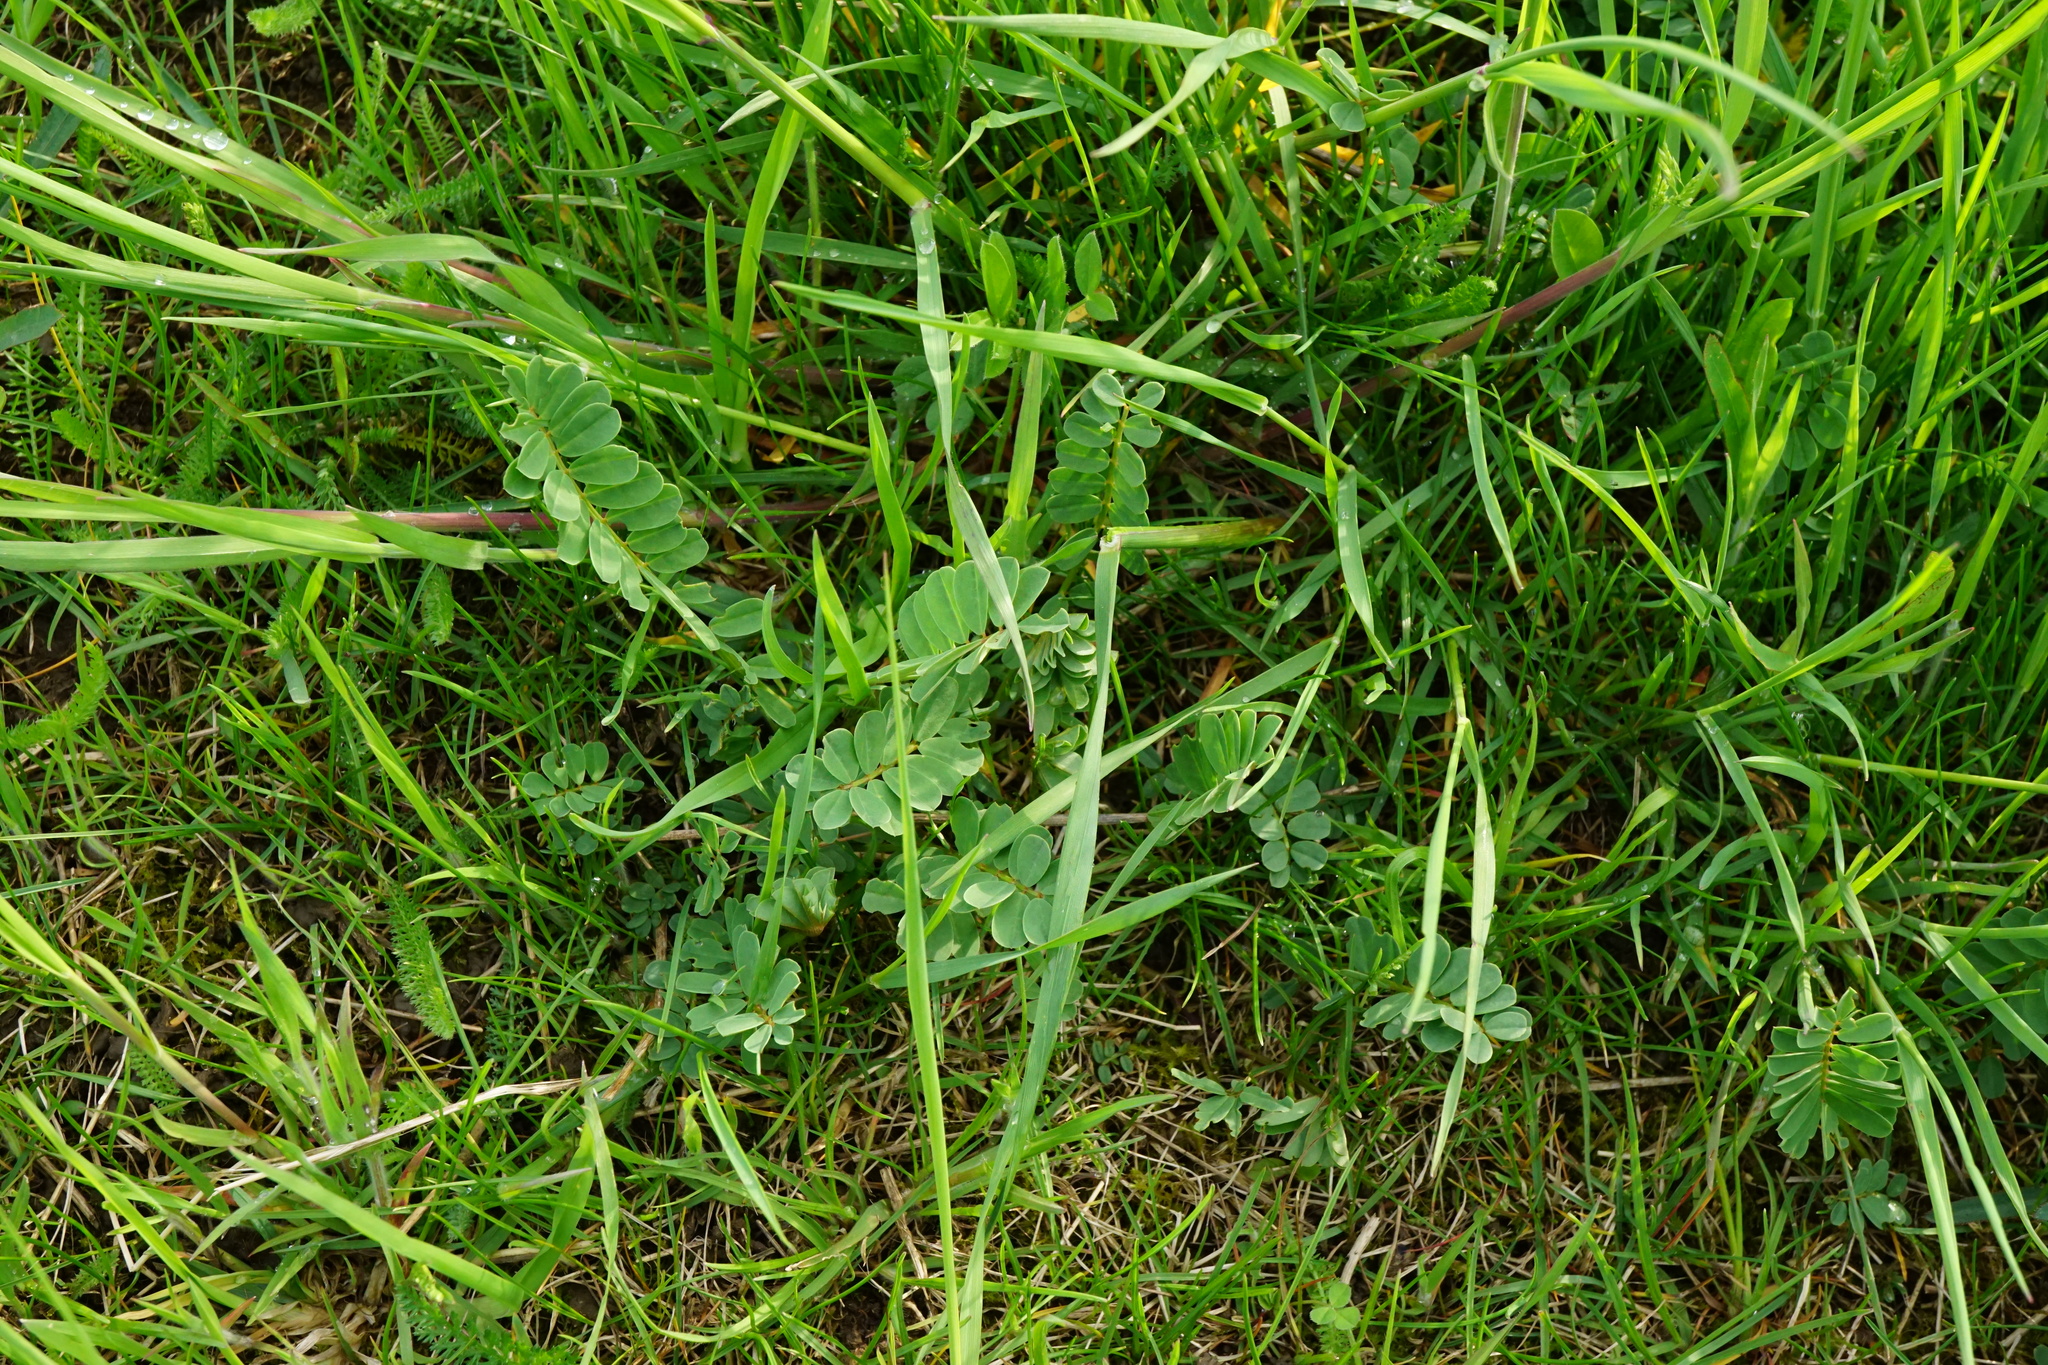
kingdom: Plantae
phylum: Tracheophyta
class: Magnoliopsida
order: Fabales
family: Fabaceae
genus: Coronilla
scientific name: Coronilla varia
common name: Crownvetch
